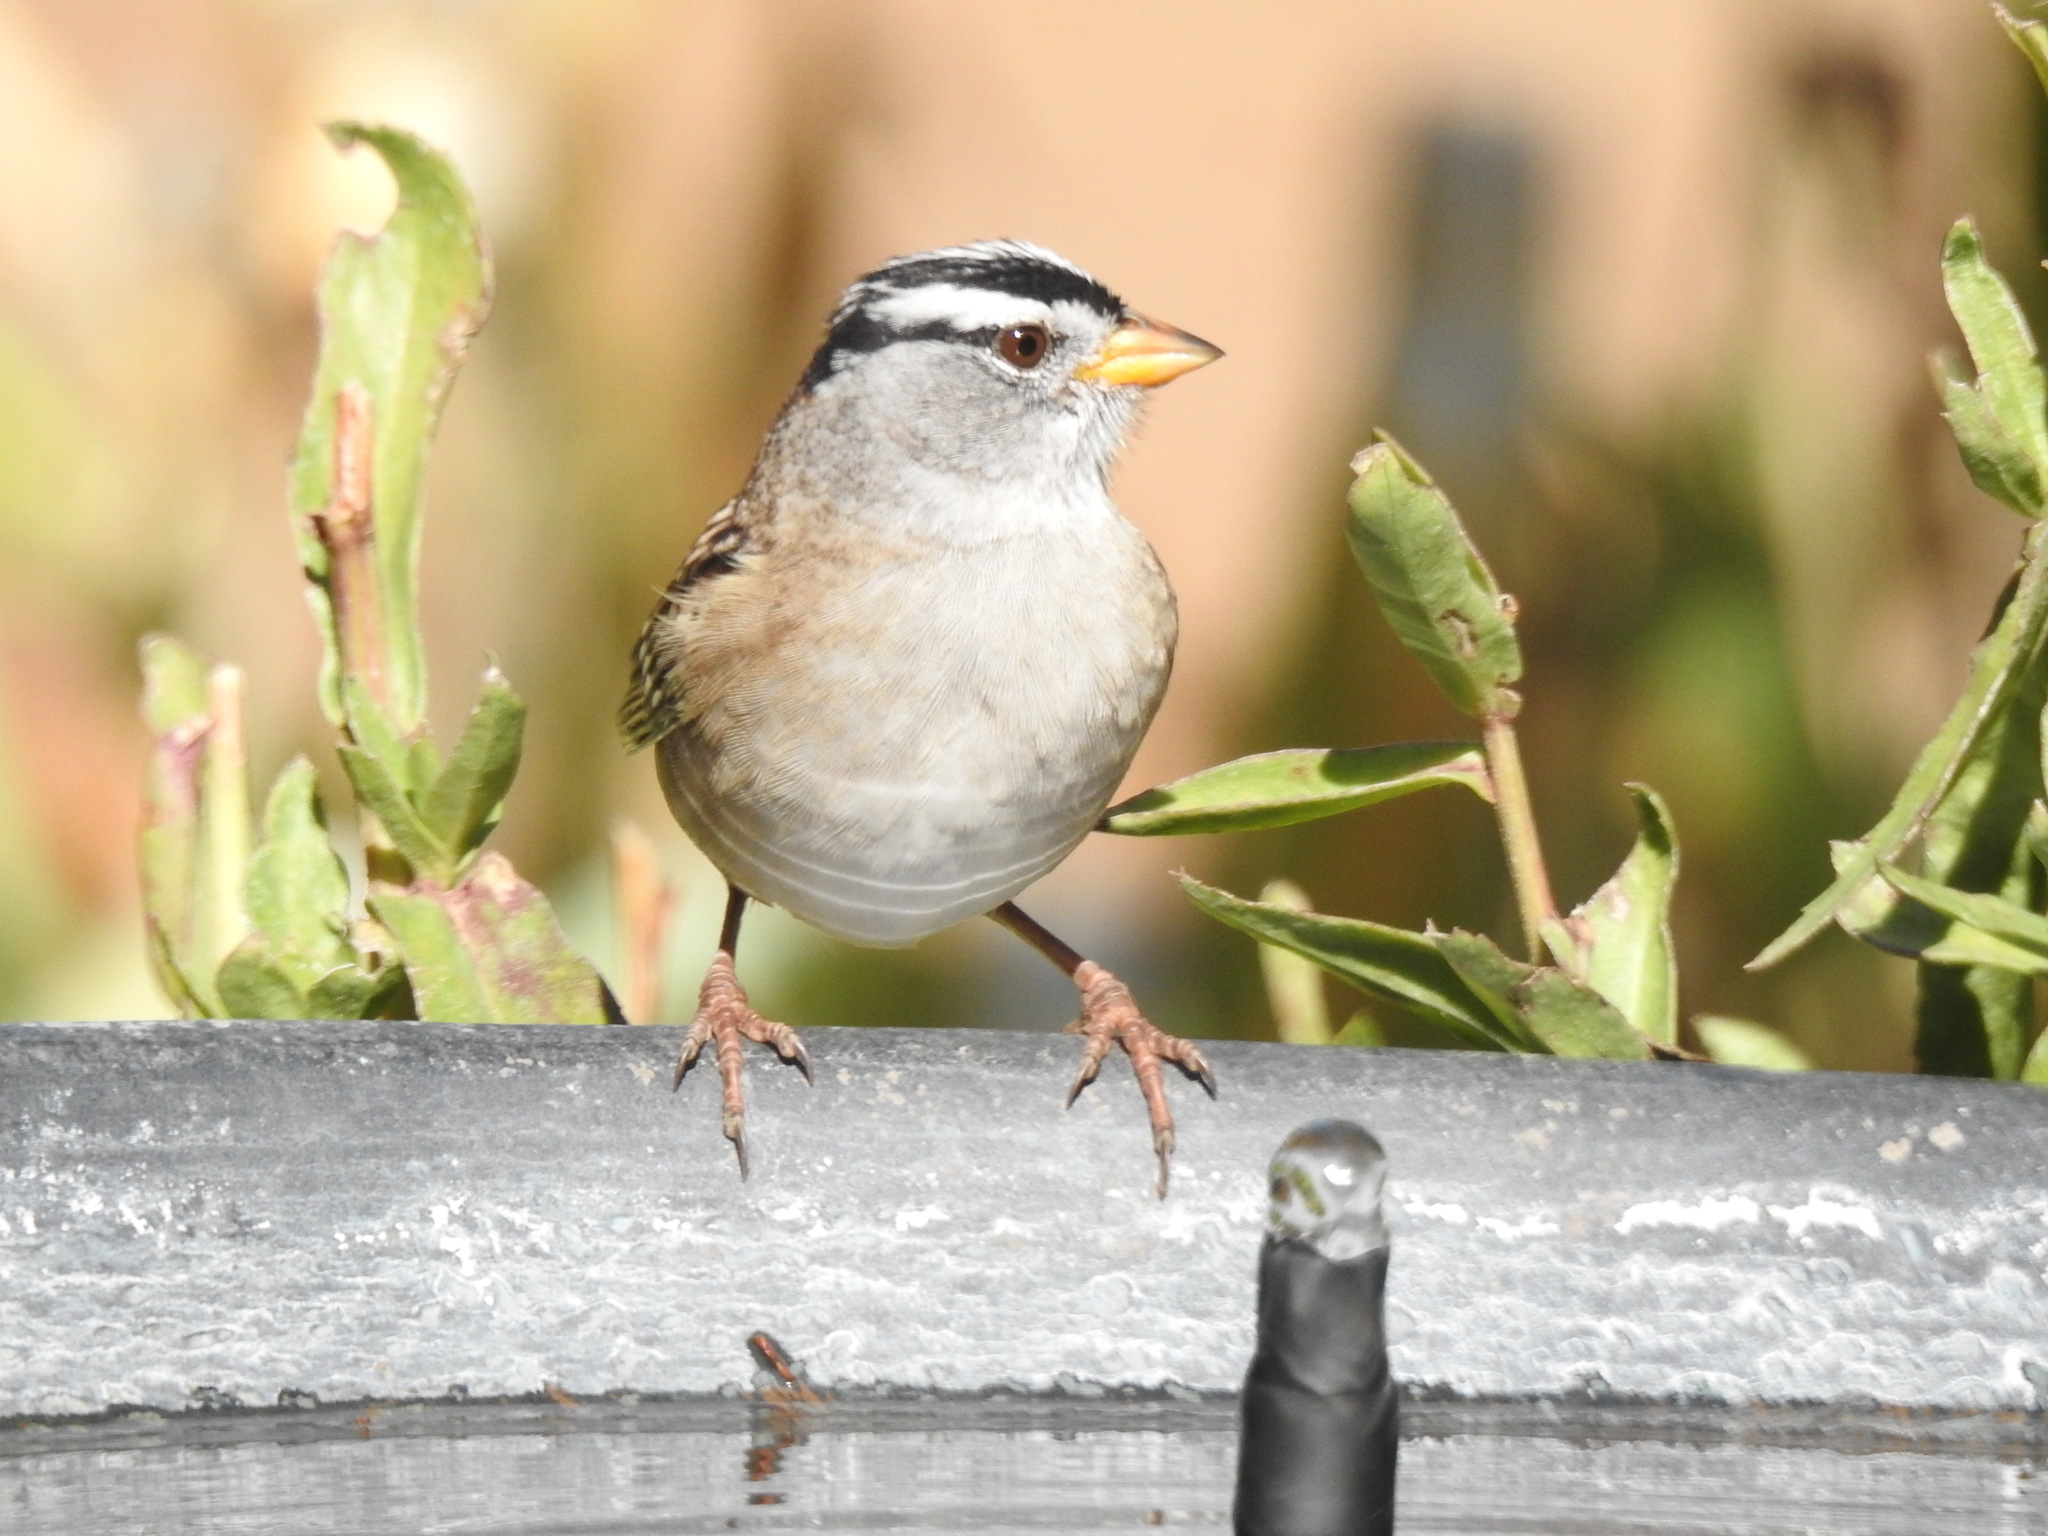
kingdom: Animalia
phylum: Chordata
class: Aves
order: Passeriformes
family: Passerellidae
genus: Zonotrichia
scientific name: Zonotrichia leucophrys
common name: White-crowned sparrow
